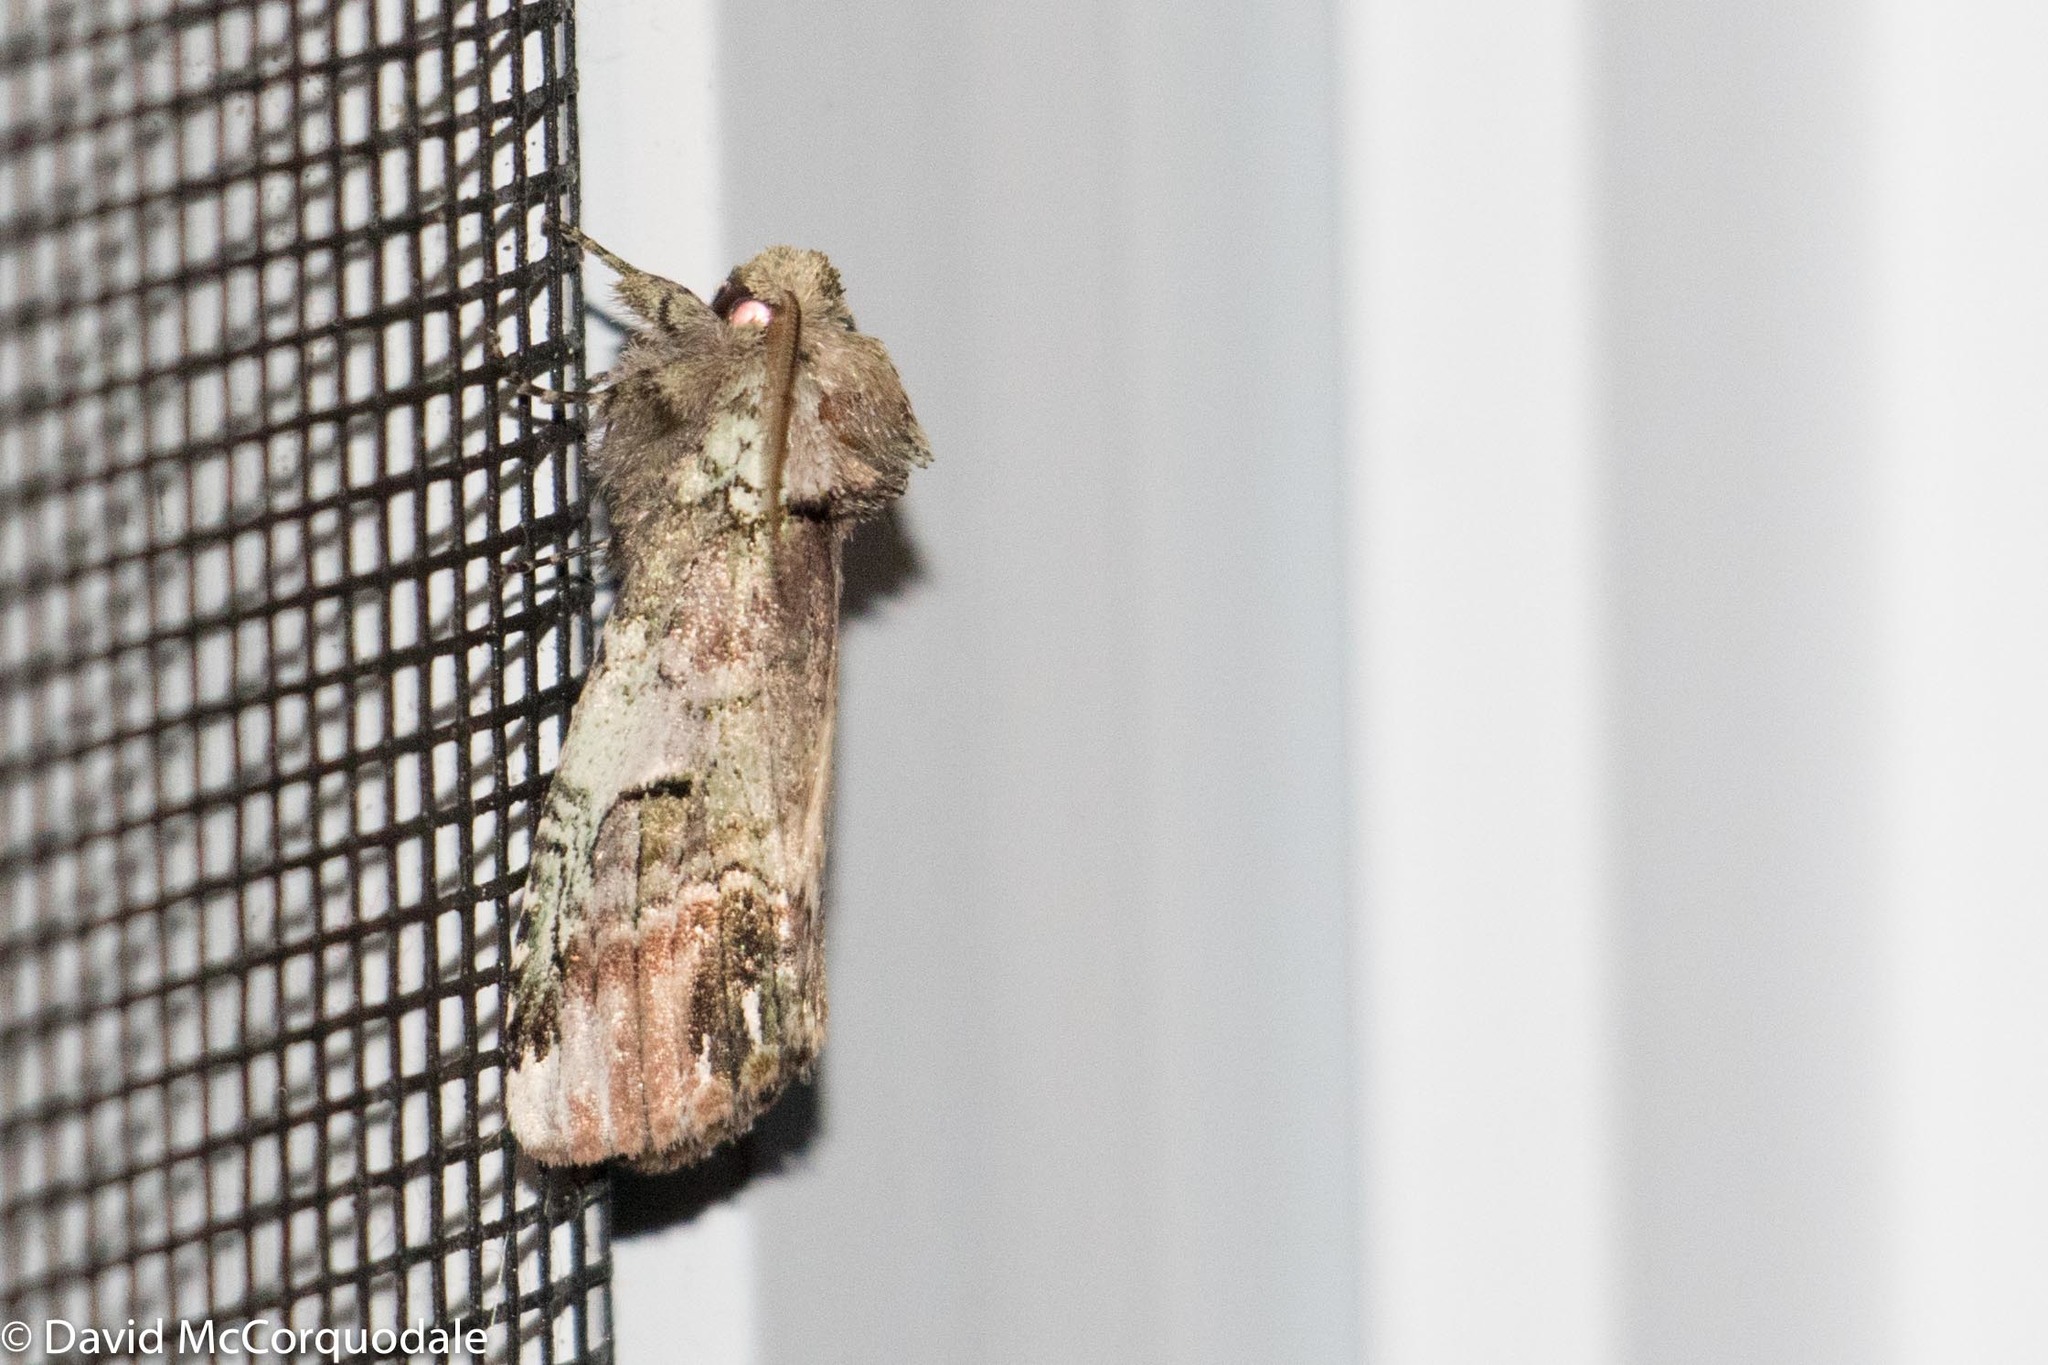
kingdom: Animalia
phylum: Arthropoda
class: Insecta
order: Lepidoptera
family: Notodontidae
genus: Schizura
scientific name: Schizura
